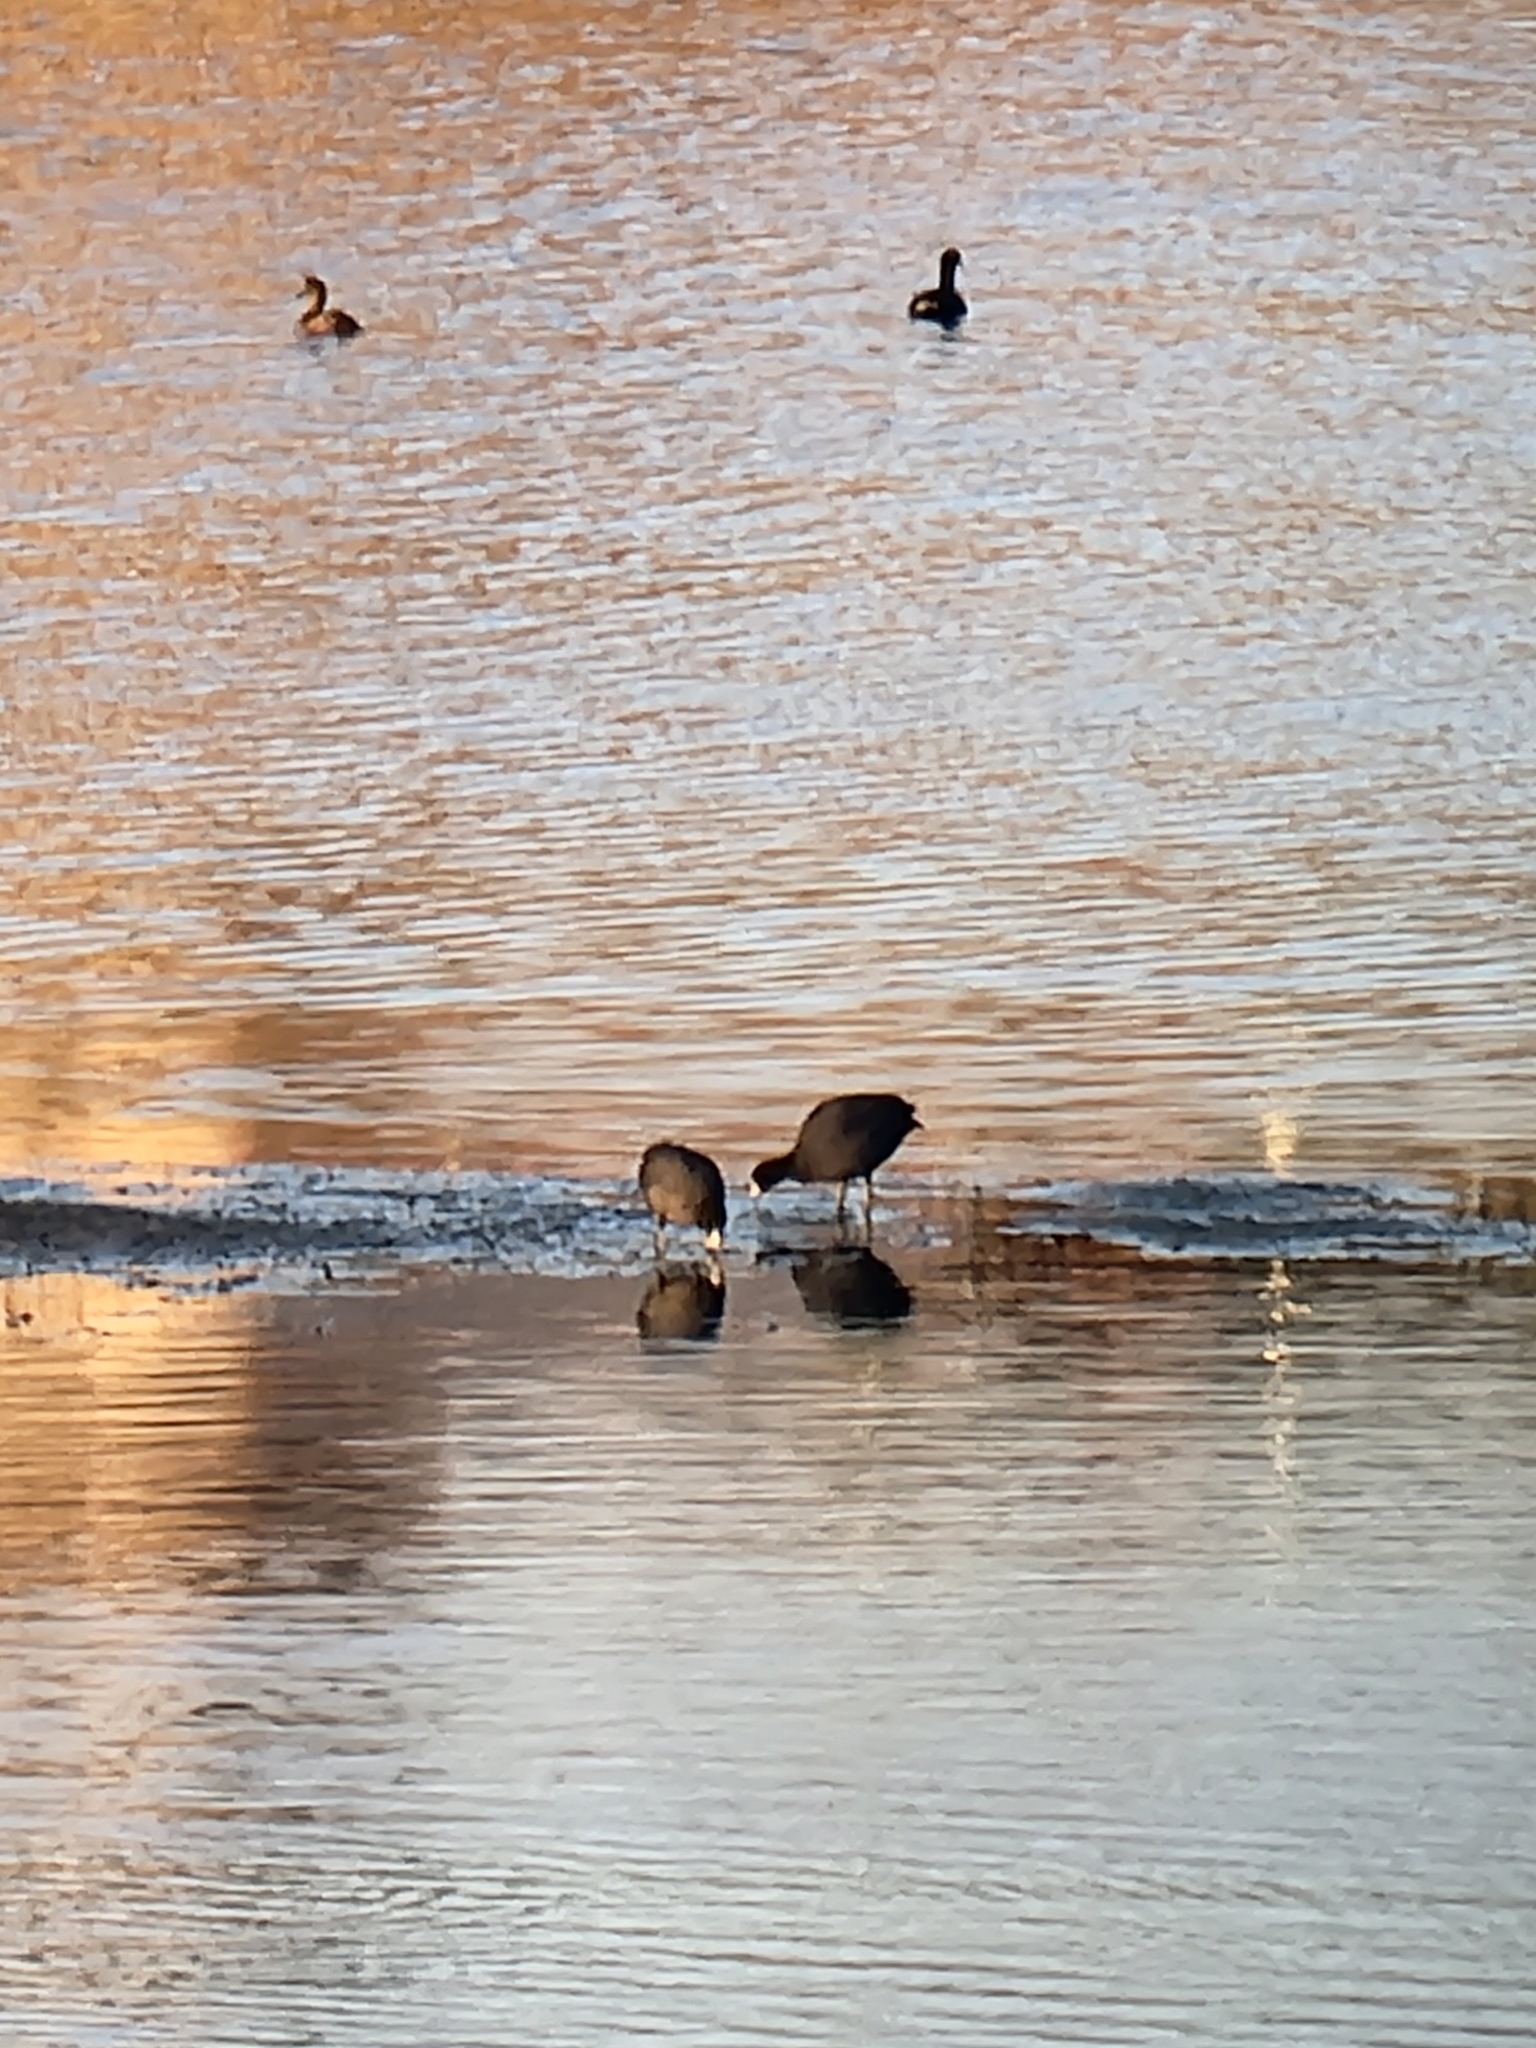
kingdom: Animalia
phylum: Chordata
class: Aves
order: Gruiformes
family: Rallidae
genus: Fulica
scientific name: Fulica americana
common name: American coot
